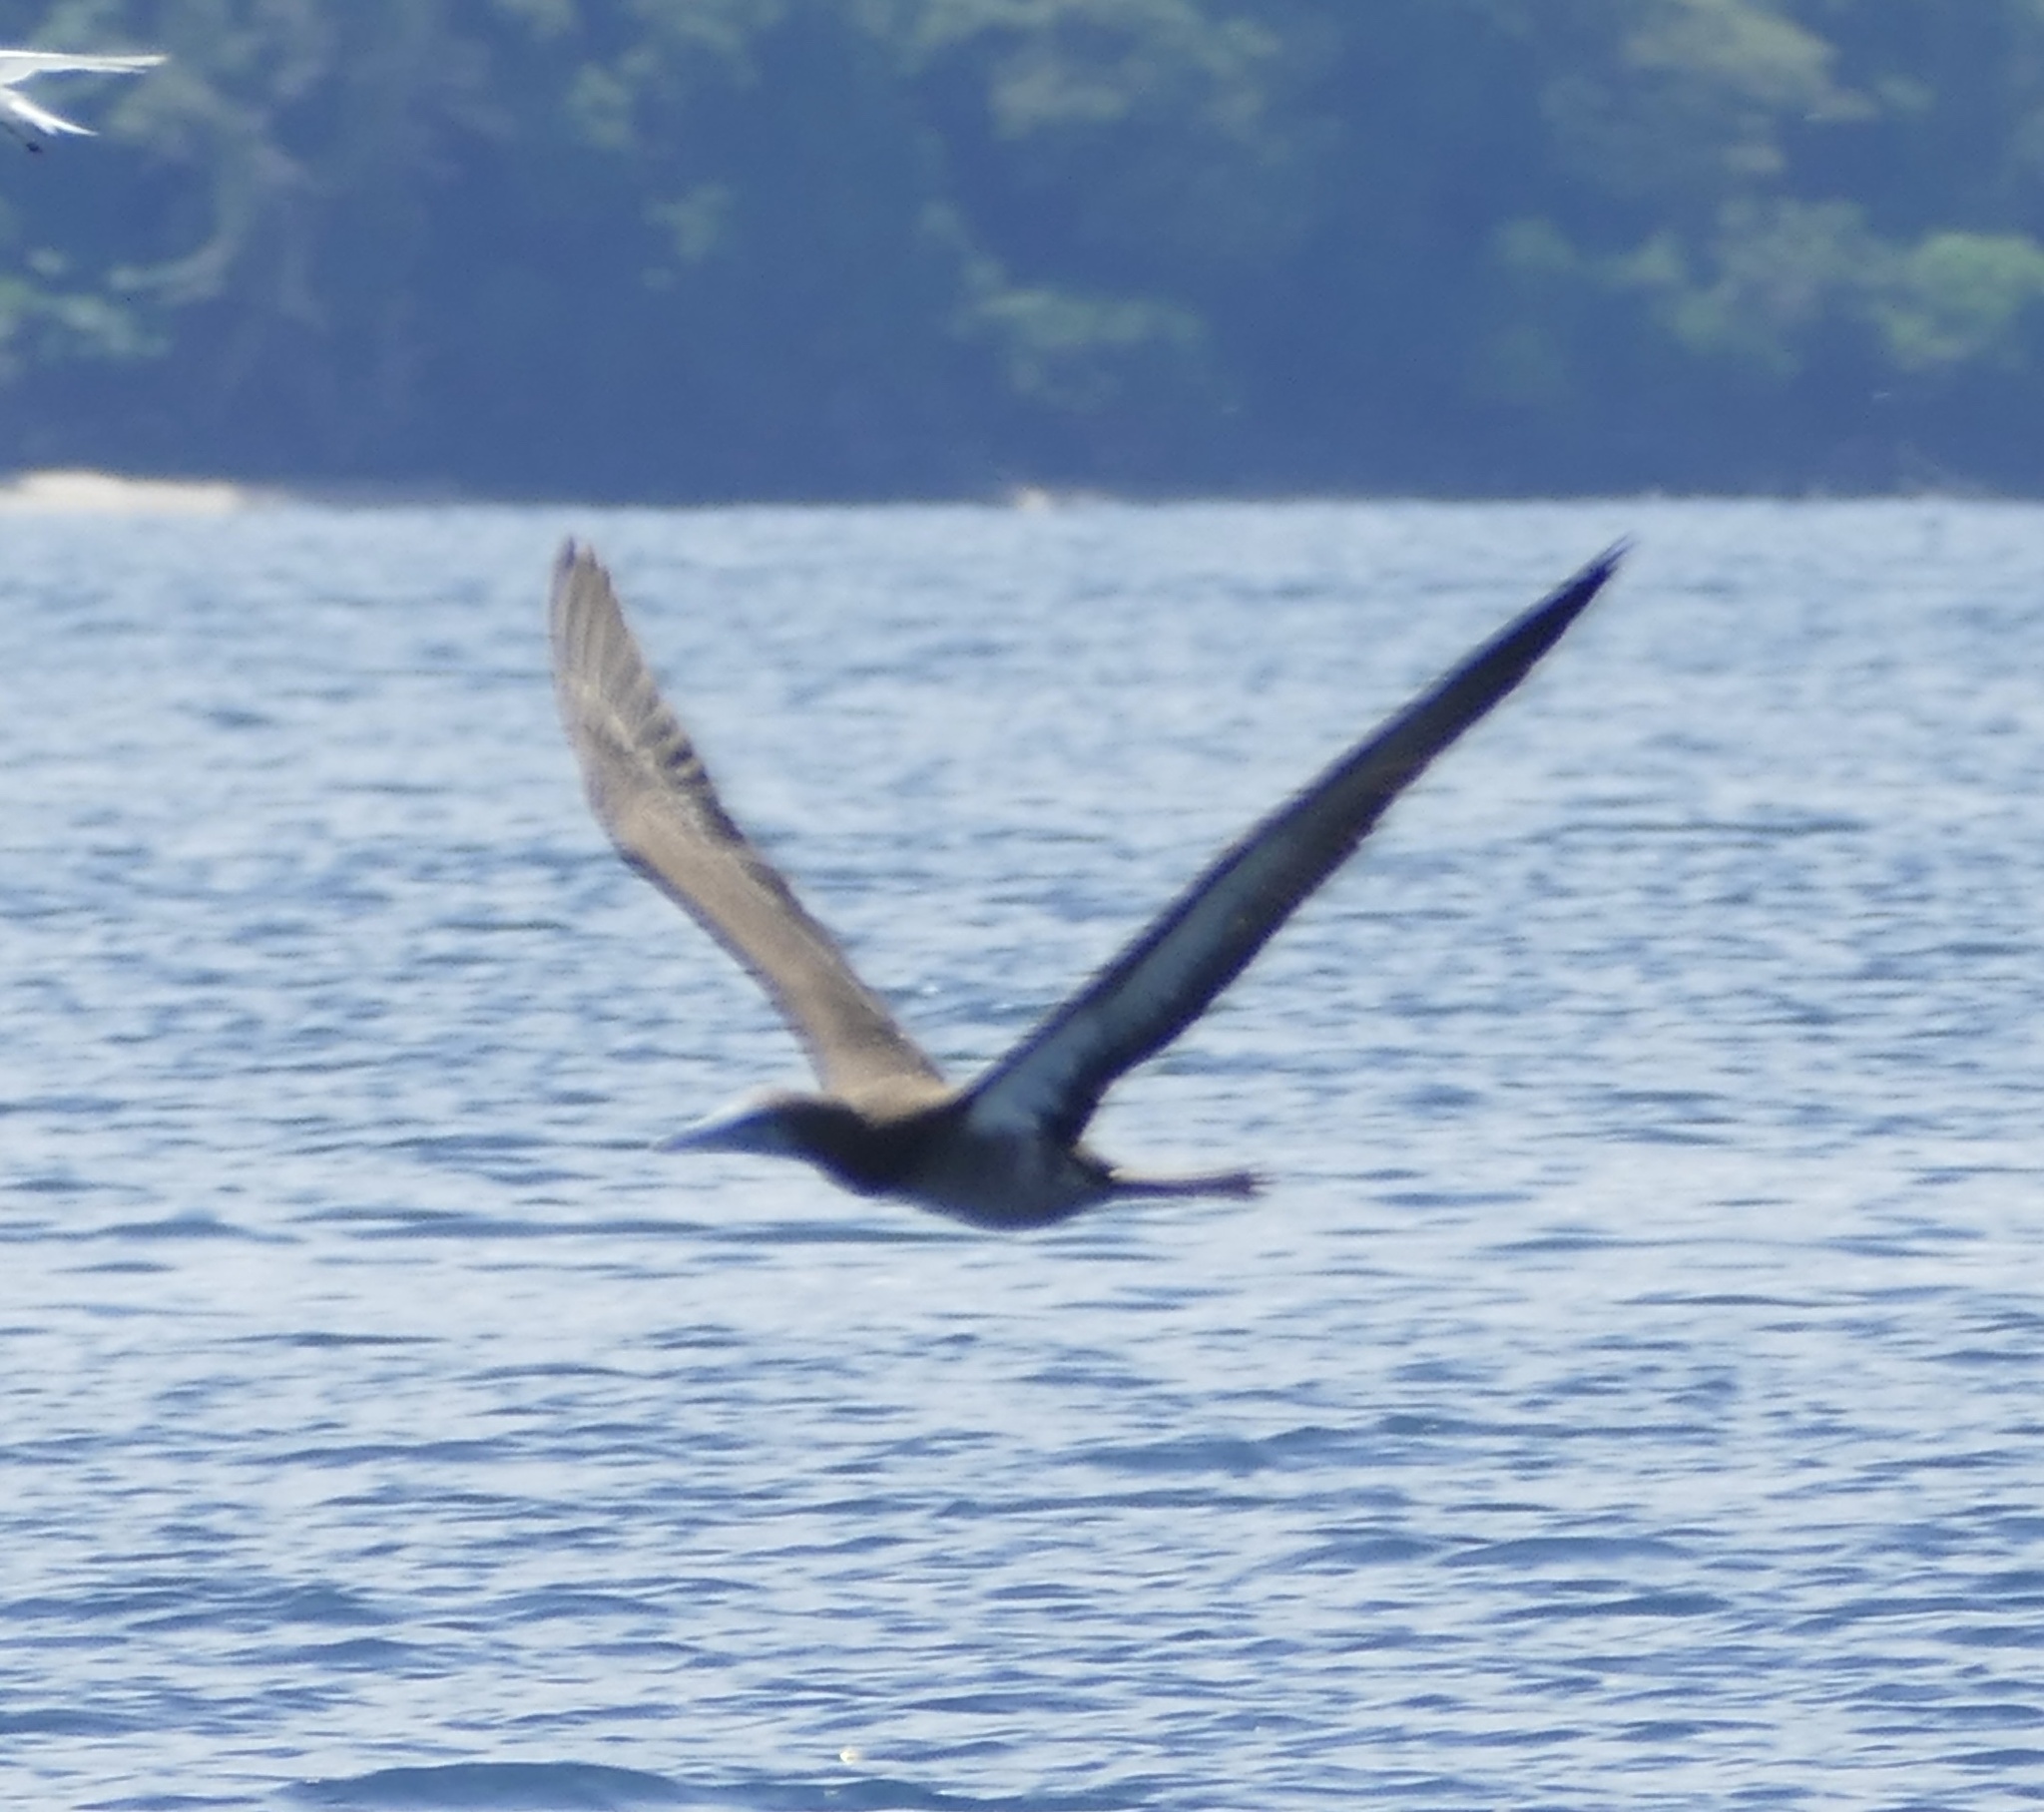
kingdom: Animalia
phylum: Chordata
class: Aves
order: Suliformes
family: Sulidae
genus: Sula
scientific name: Sula leucogaster
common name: Brown booby
